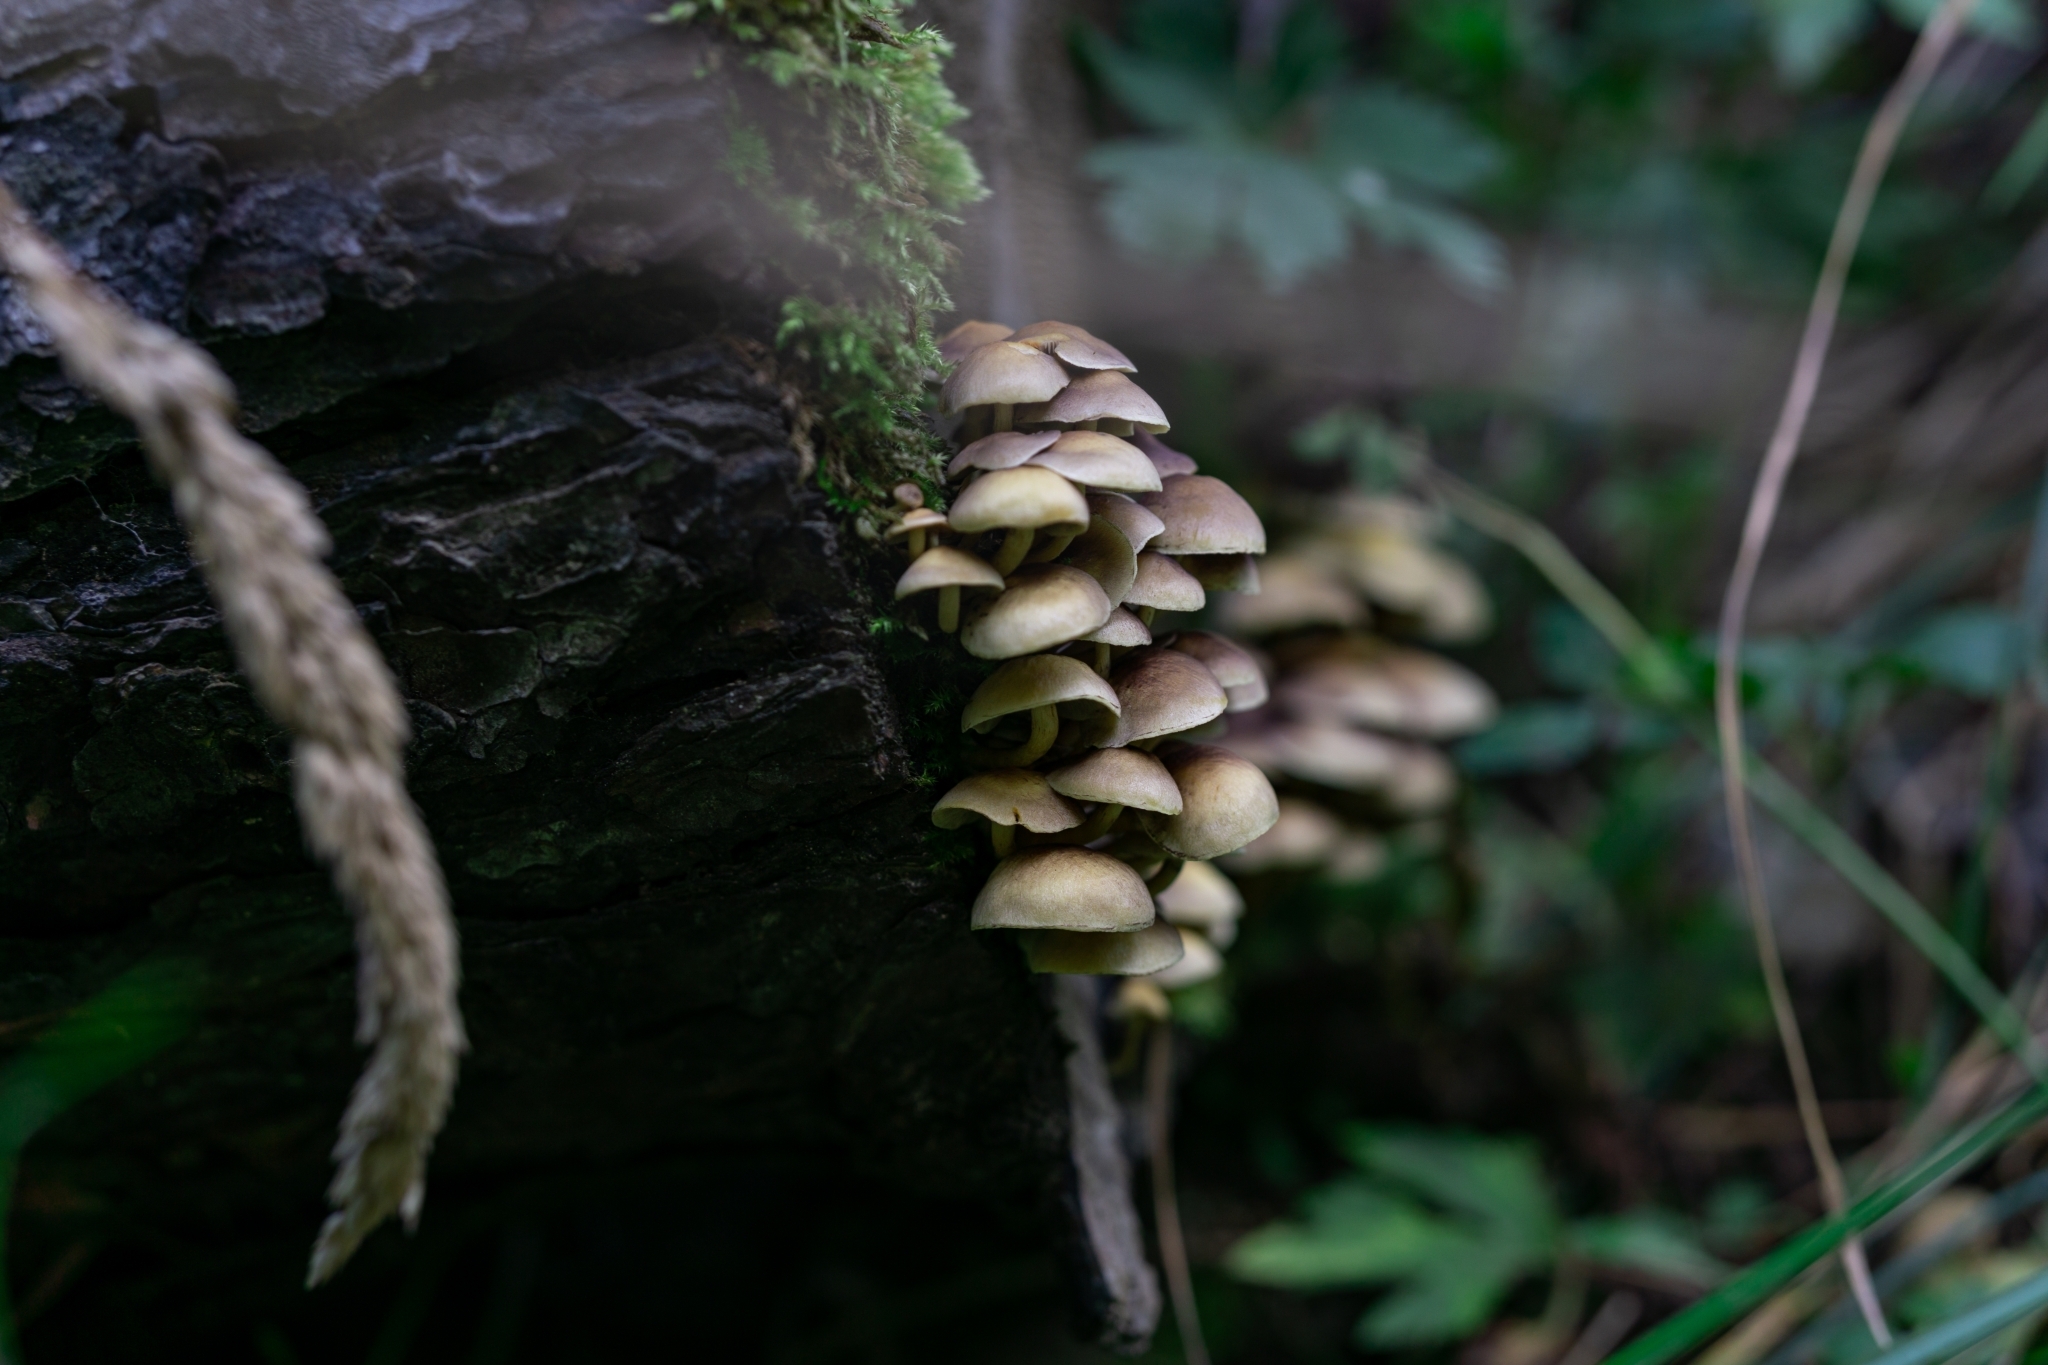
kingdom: Fungi
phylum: Basidiomycota
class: Agaricomycetes
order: Agaricales
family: Strophariaceae
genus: Hypholoma
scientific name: Hypholoma fasciculare
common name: Sulphur tuft
